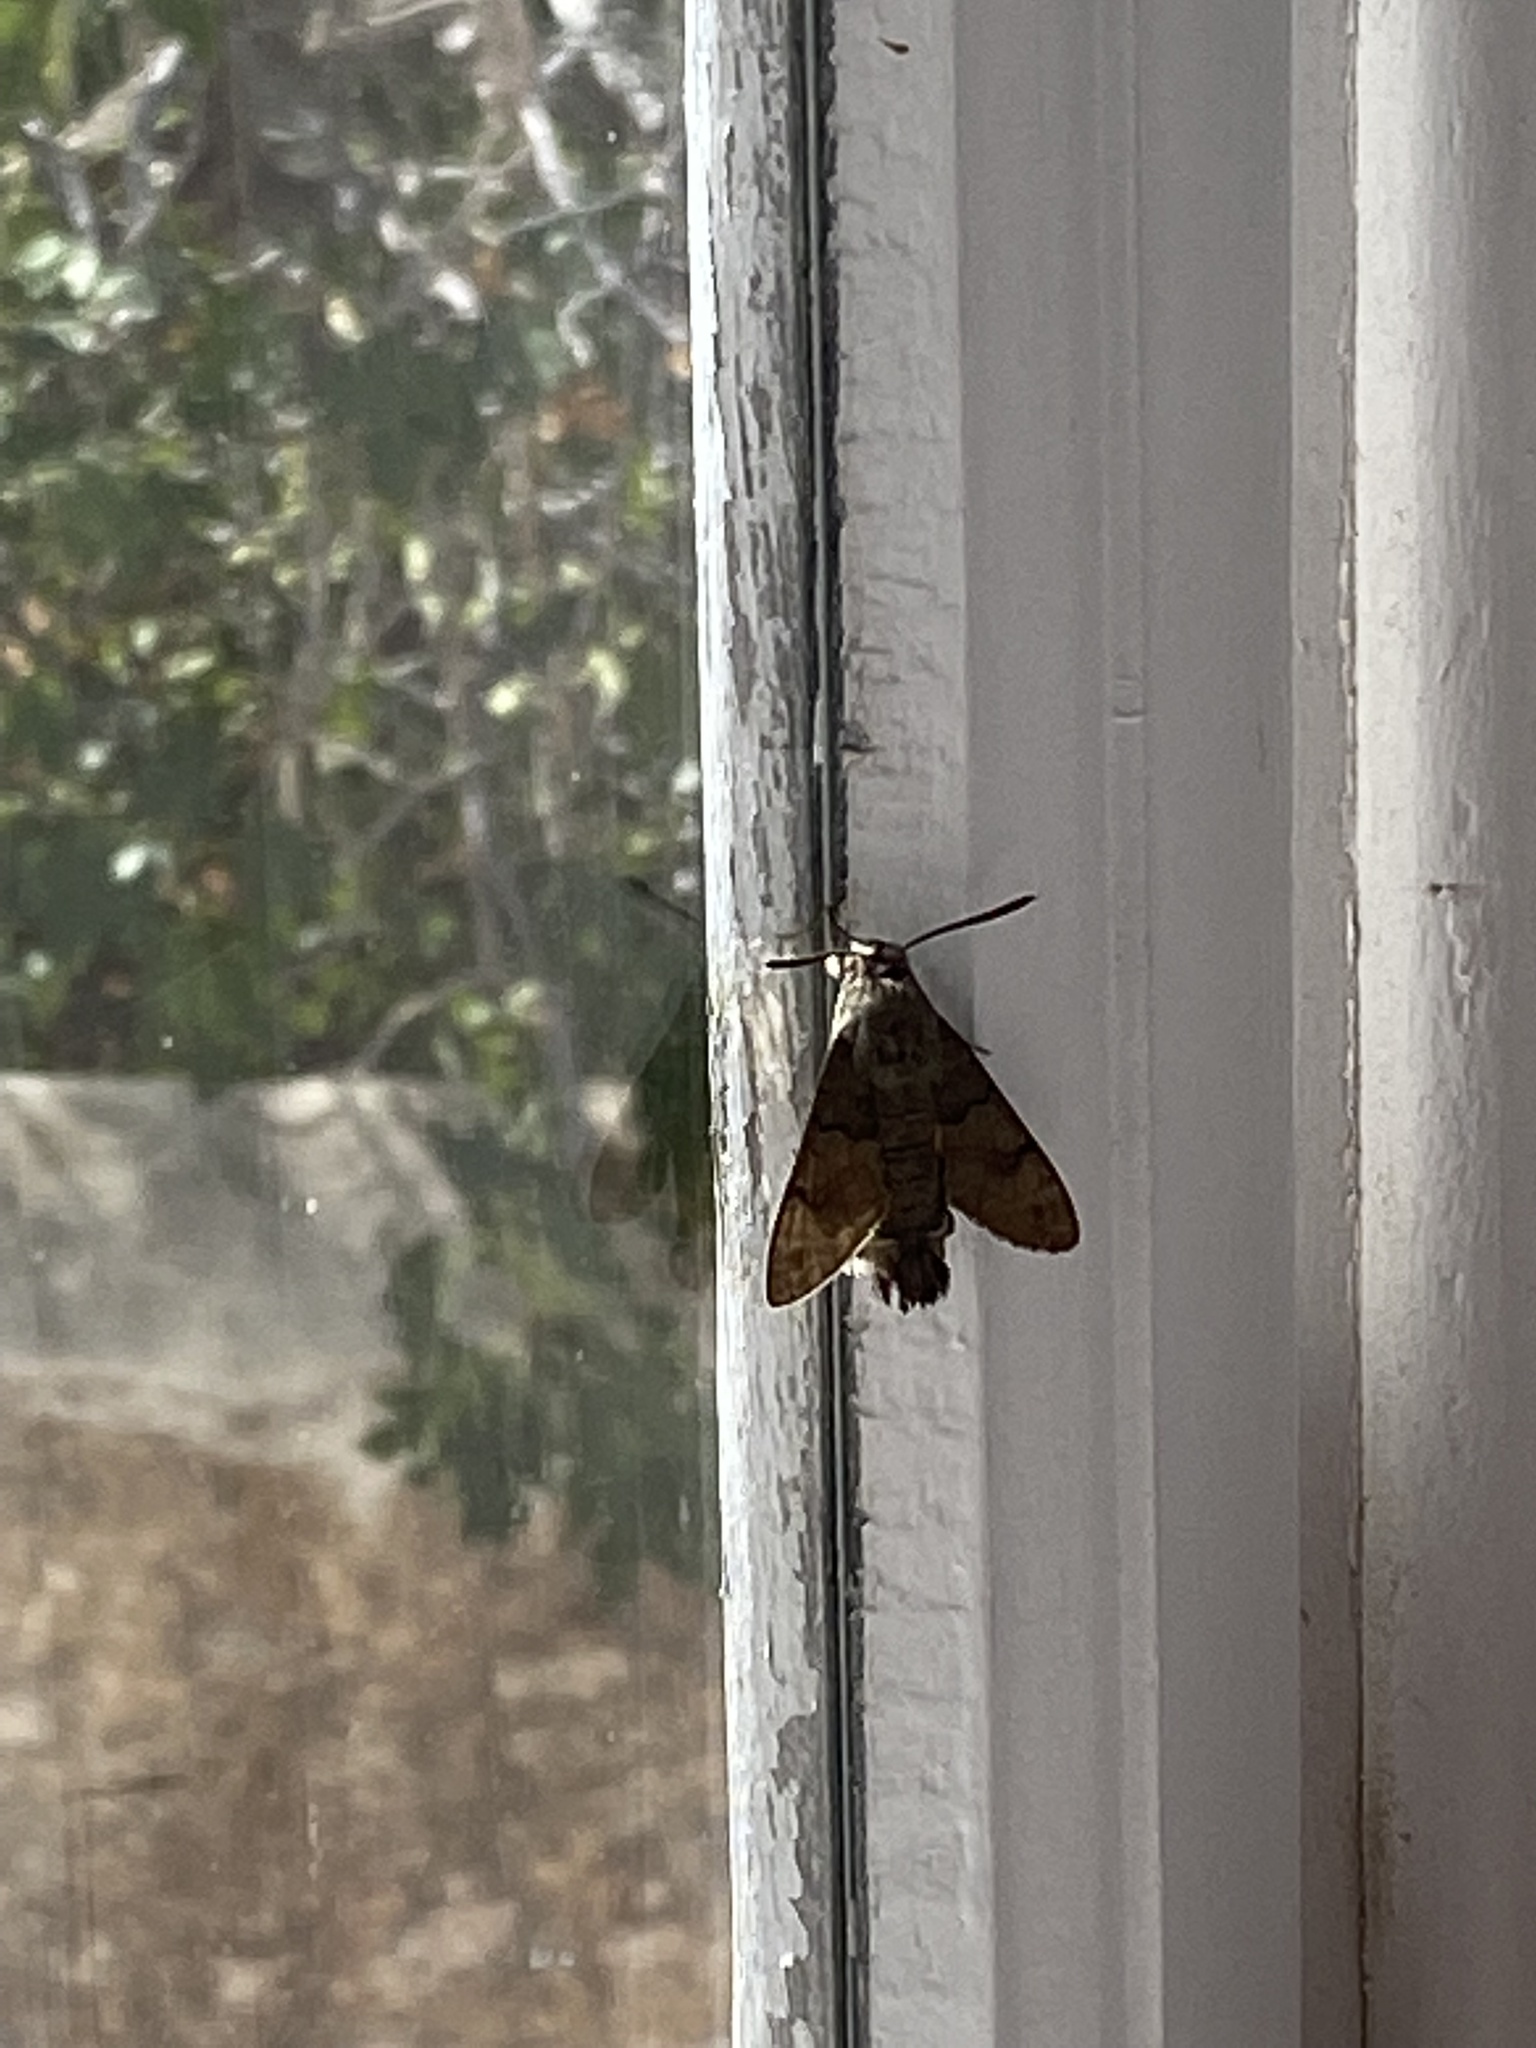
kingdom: Animalia
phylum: Arthropoda
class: Insecta
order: Lepidoptera
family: Sphingidae
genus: Macroglossum
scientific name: Macroglossum stellatarum
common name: Humming-bird hawk-moth
